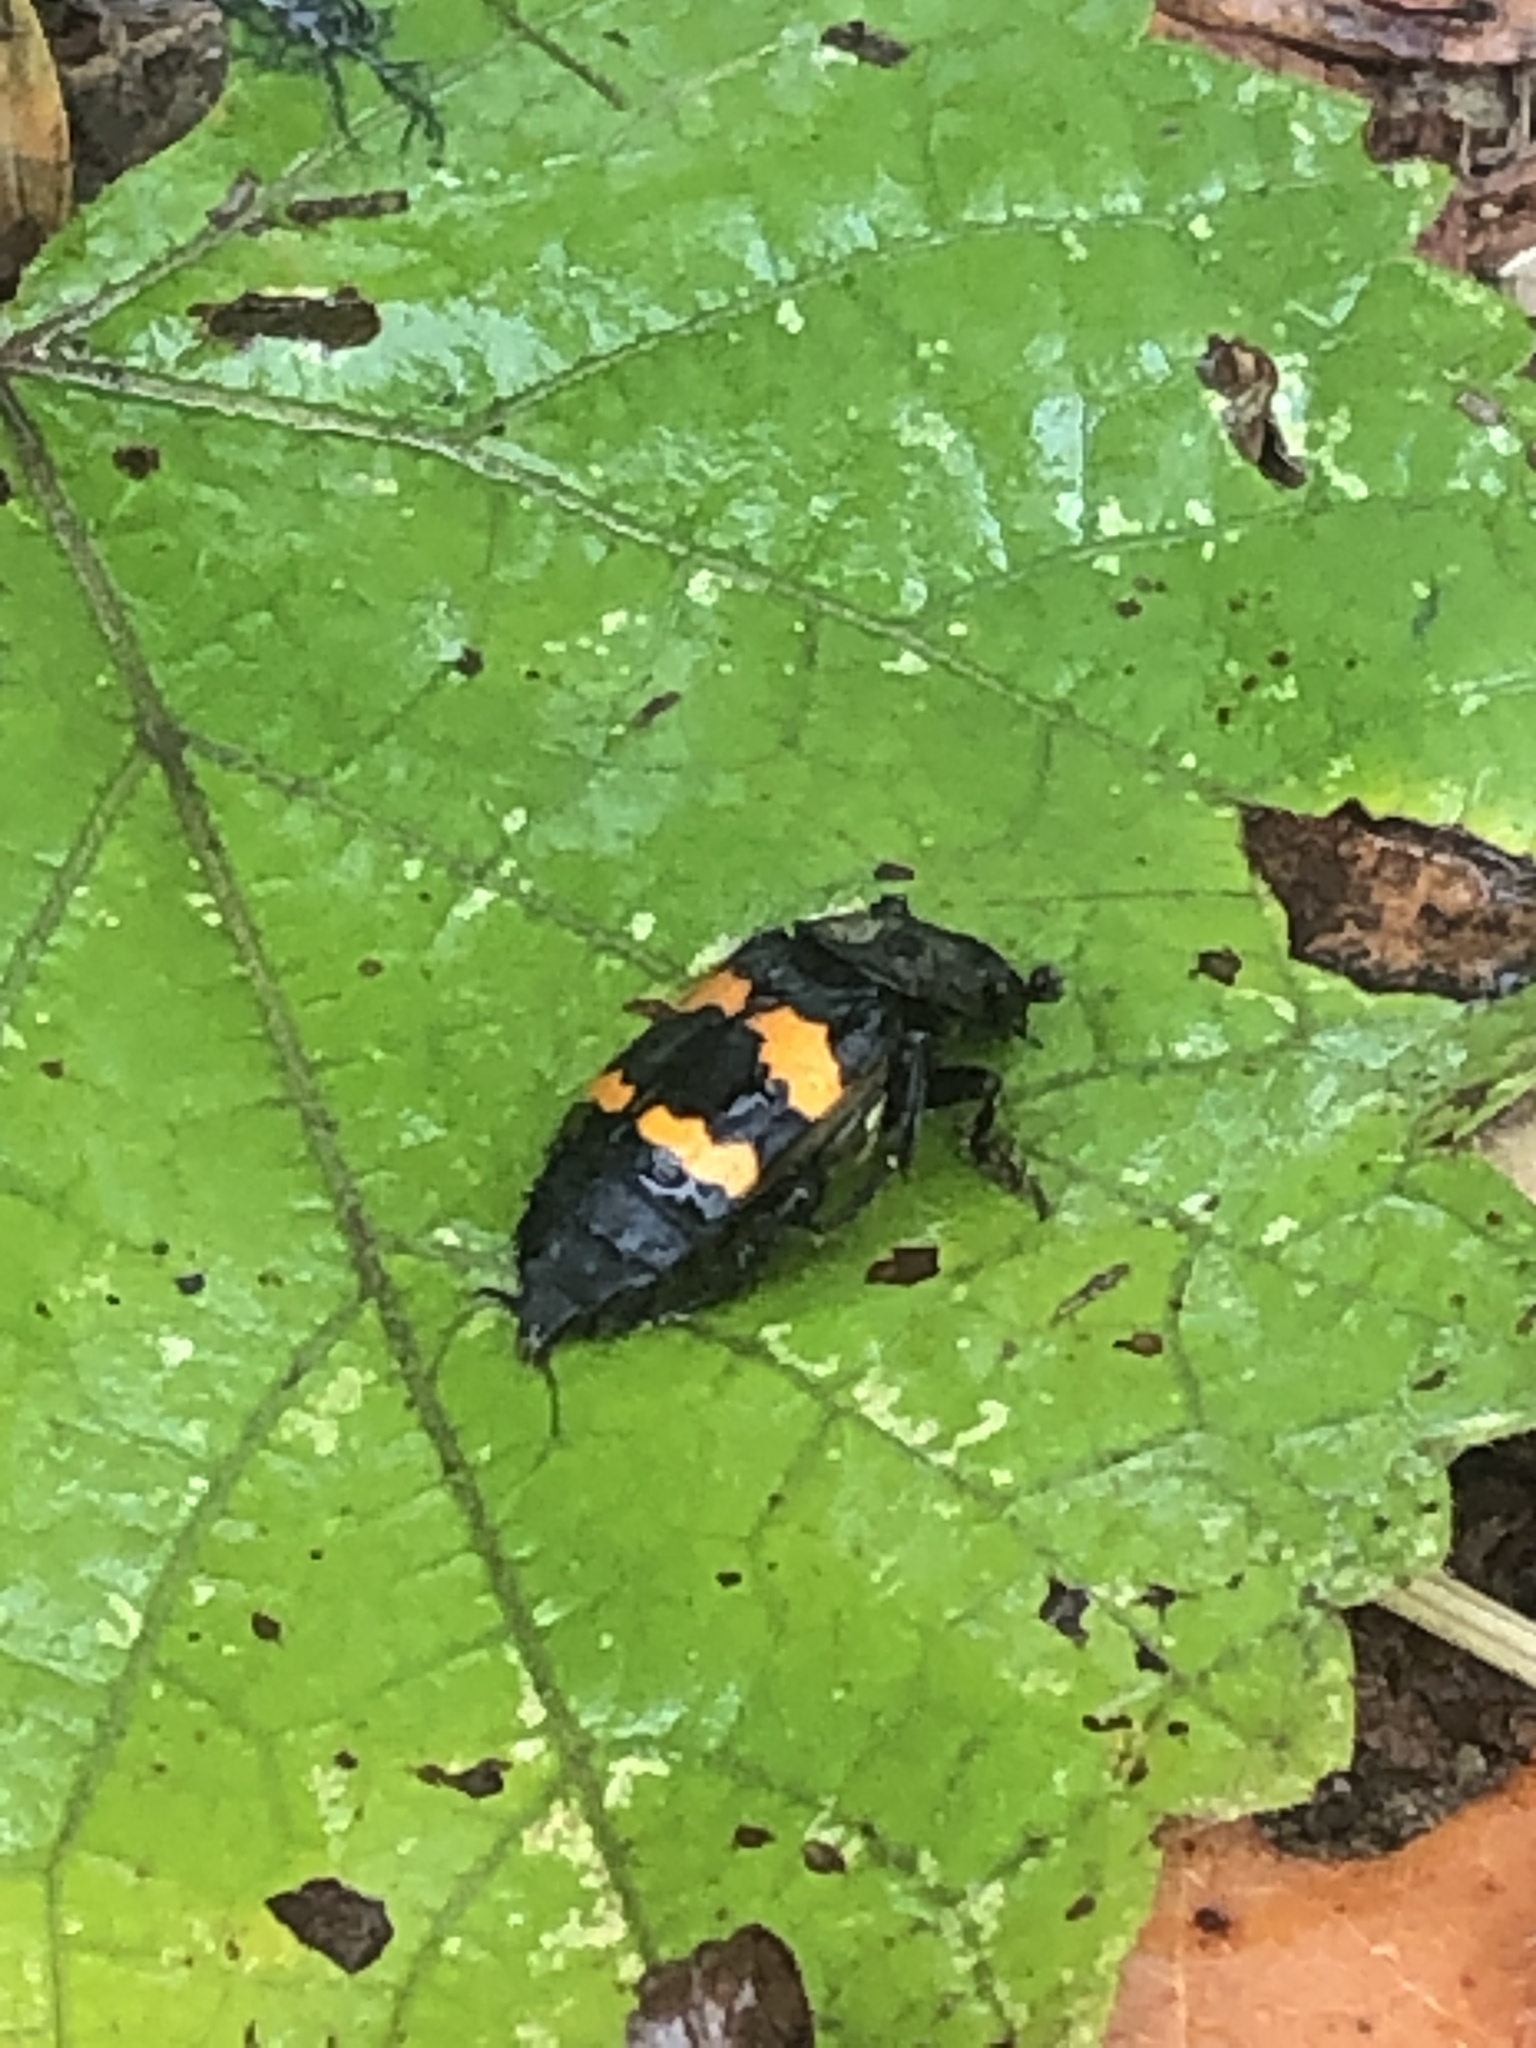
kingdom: Animalia
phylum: Arthropoda
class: Insecta
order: Coleoptera
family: Staphylinidae
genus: Nicrophorus
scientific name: Nicrophorus tomentosus
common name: Tomentose burying beetle
